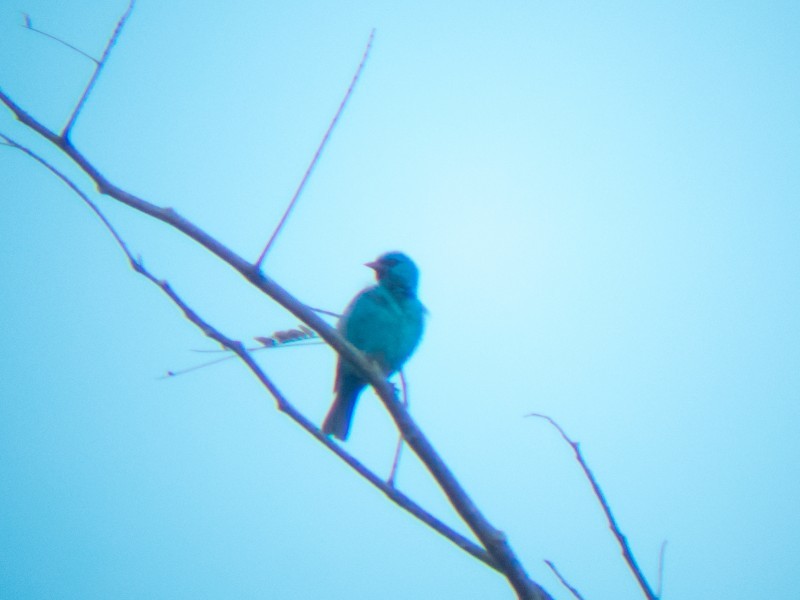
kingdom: Animalia
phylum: Chordata
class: Aves
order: Passeriformes
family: Thraupidae
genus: Dacnis
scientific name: Dacnis cayana
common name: Blue dacnis
